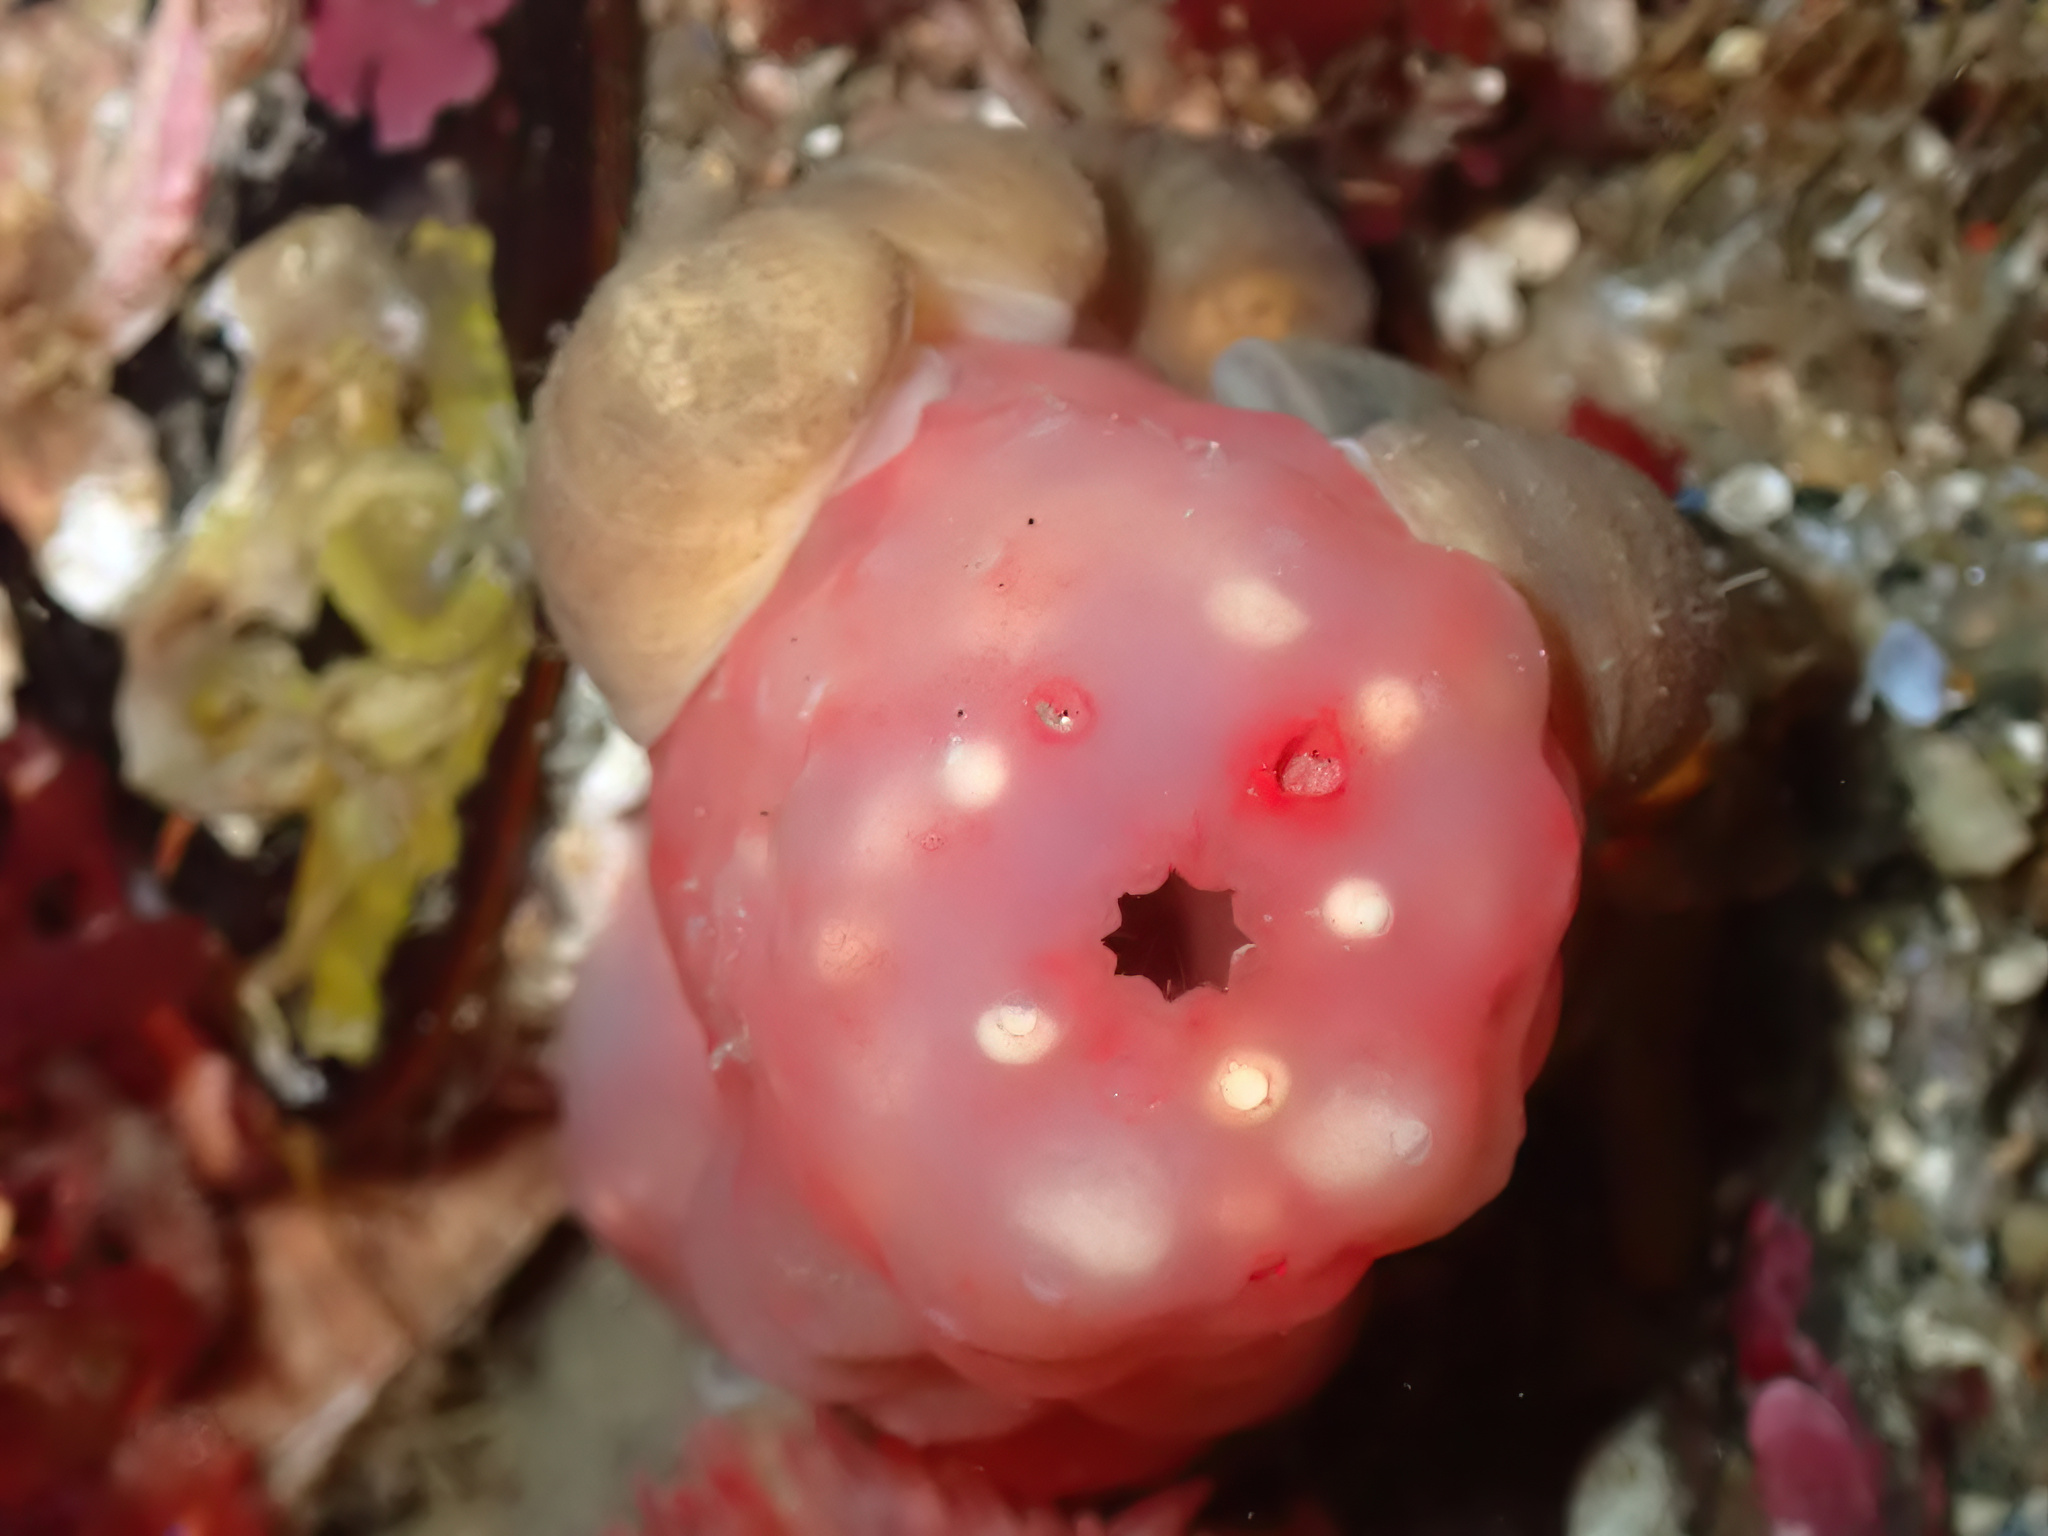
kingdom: Animalia
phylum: Mollusca
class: Gastropoda
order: Littorinimorpha
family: Velutinidae
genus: Velutina
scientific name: Velutina velutina
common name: Smooth lamellaria
